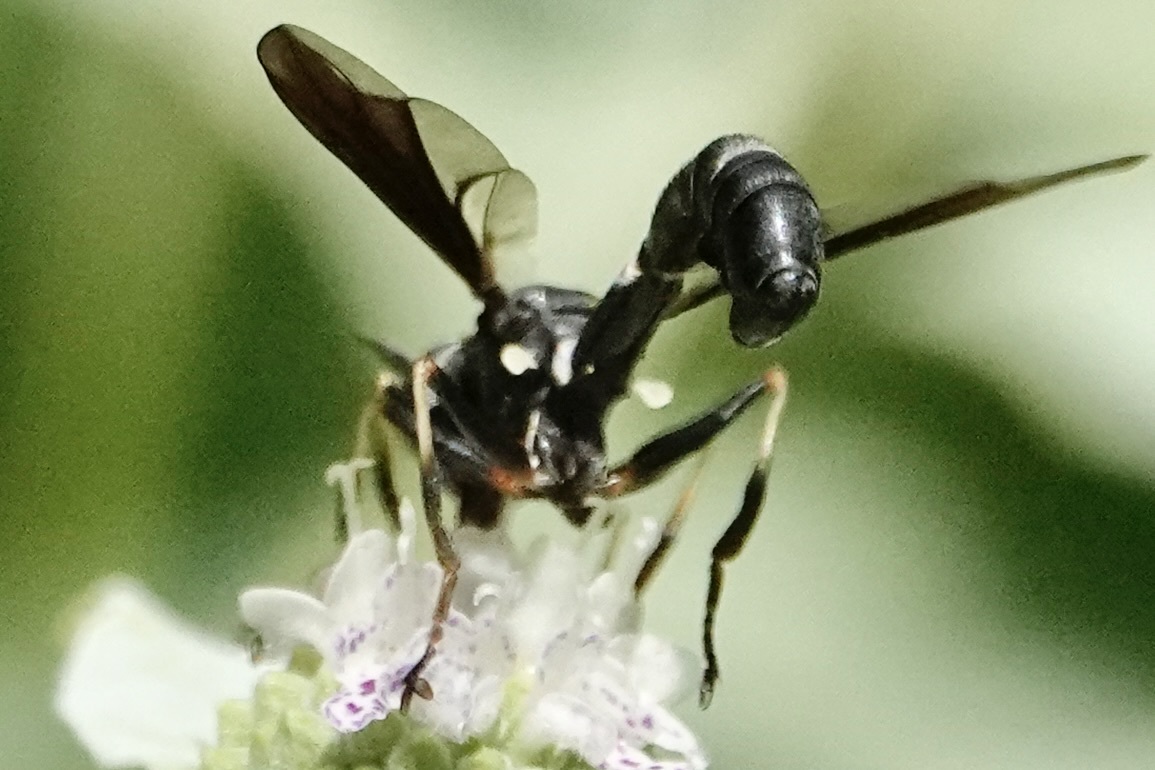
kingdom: Animalia
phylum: Arthropoda
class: Insecta
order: Diptera
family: Conopidae
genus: Physocephala
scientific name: Physocephala tibialis
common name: Common eastern physocephala
